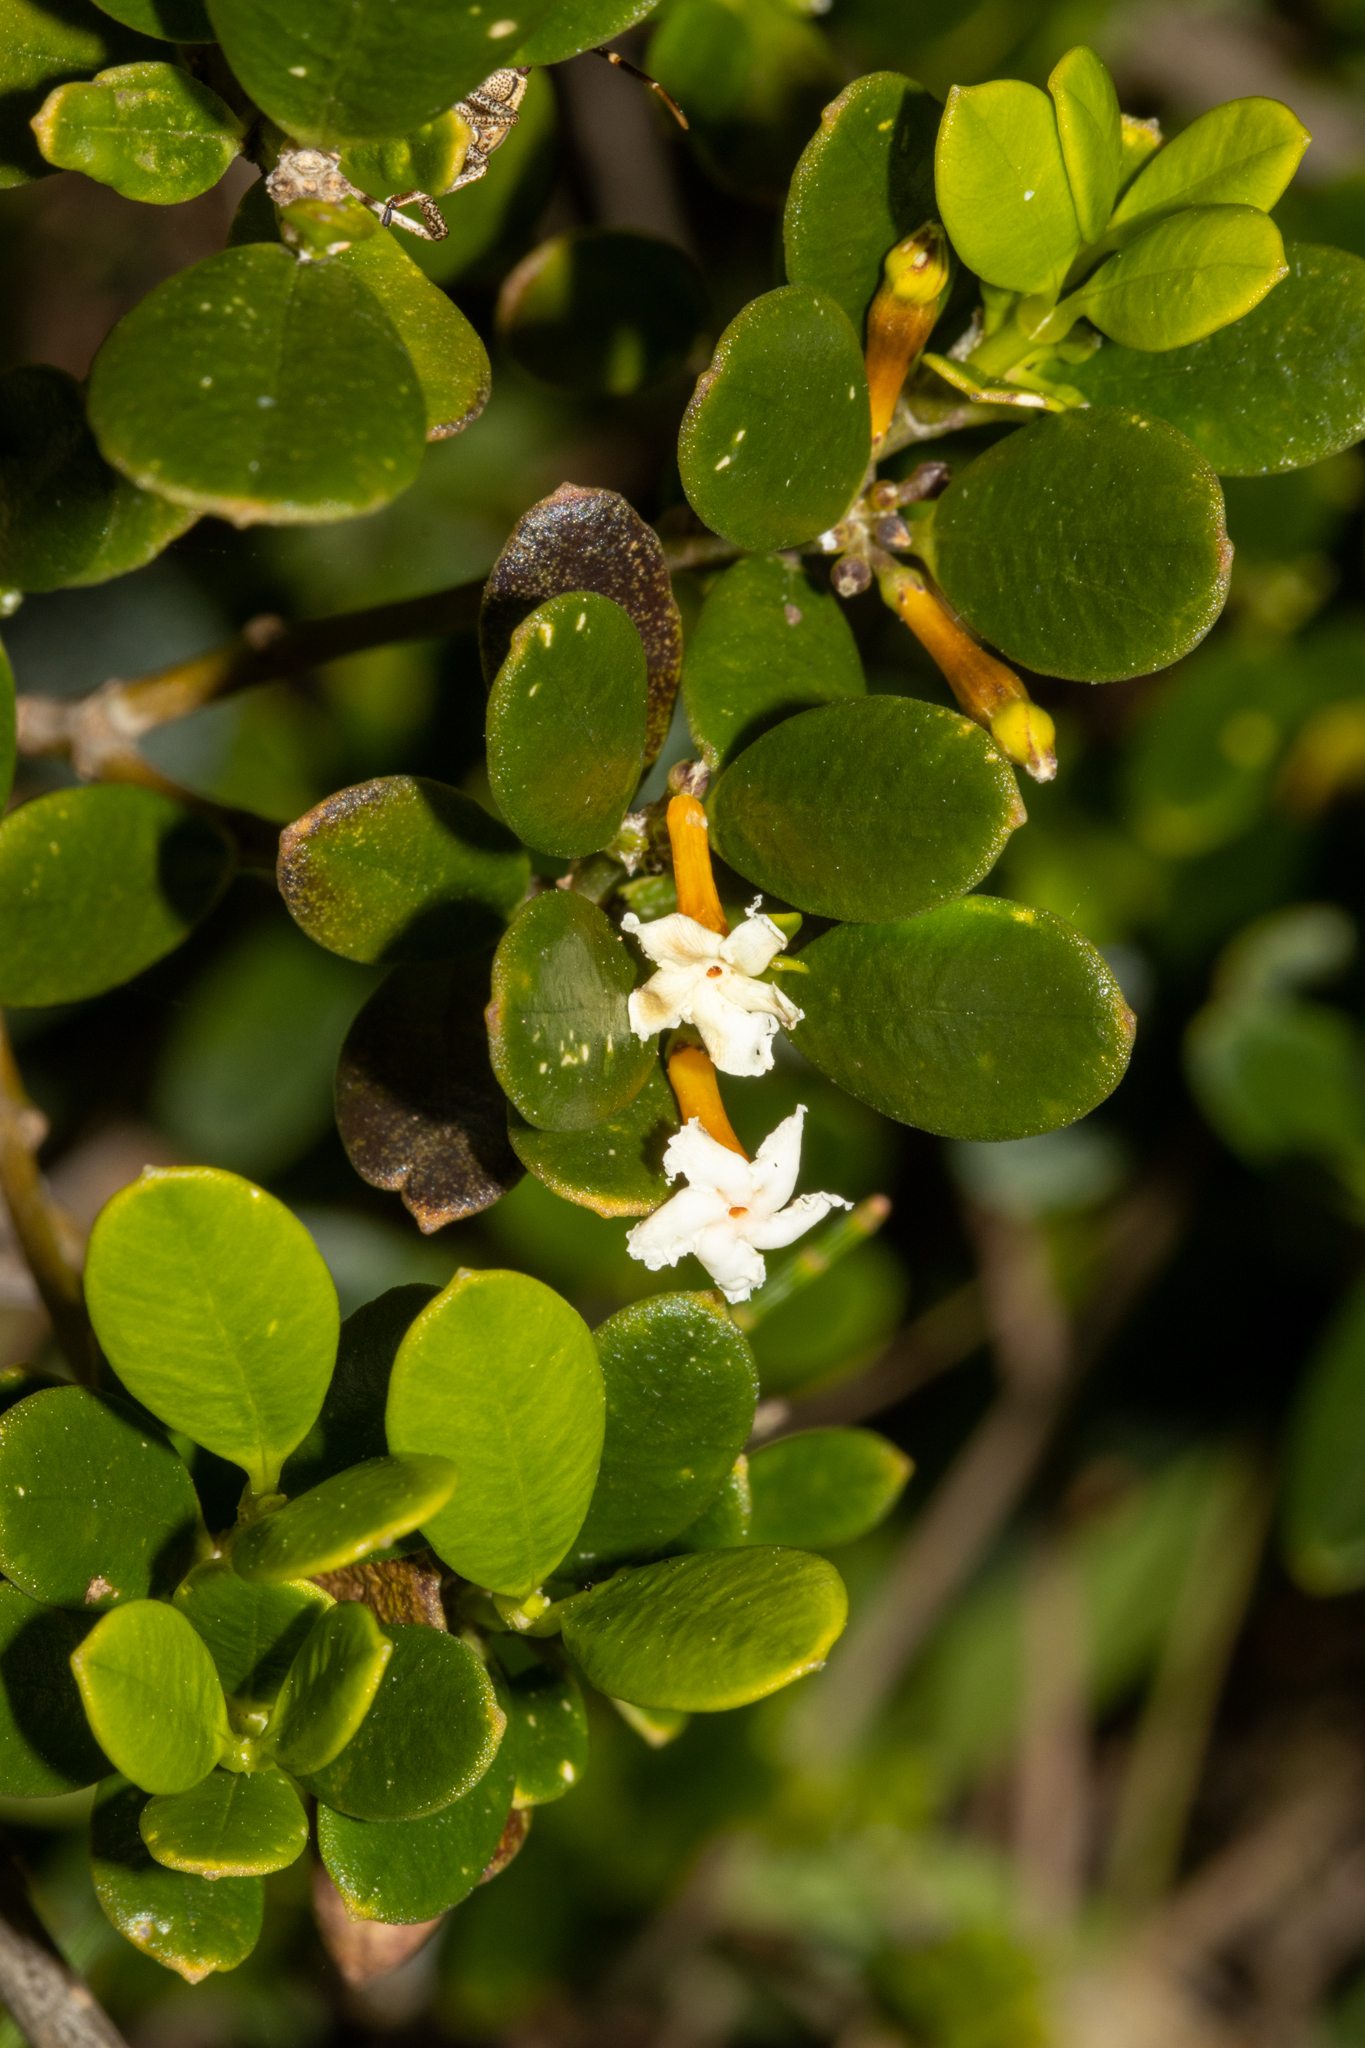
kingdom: Plantae
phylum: Tracheophyta
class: Magnoliopsida
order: Gentianales
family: Apocynaceae
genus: Alyxia
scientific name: Alyxia buxifolia
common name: Dysentery-bush
